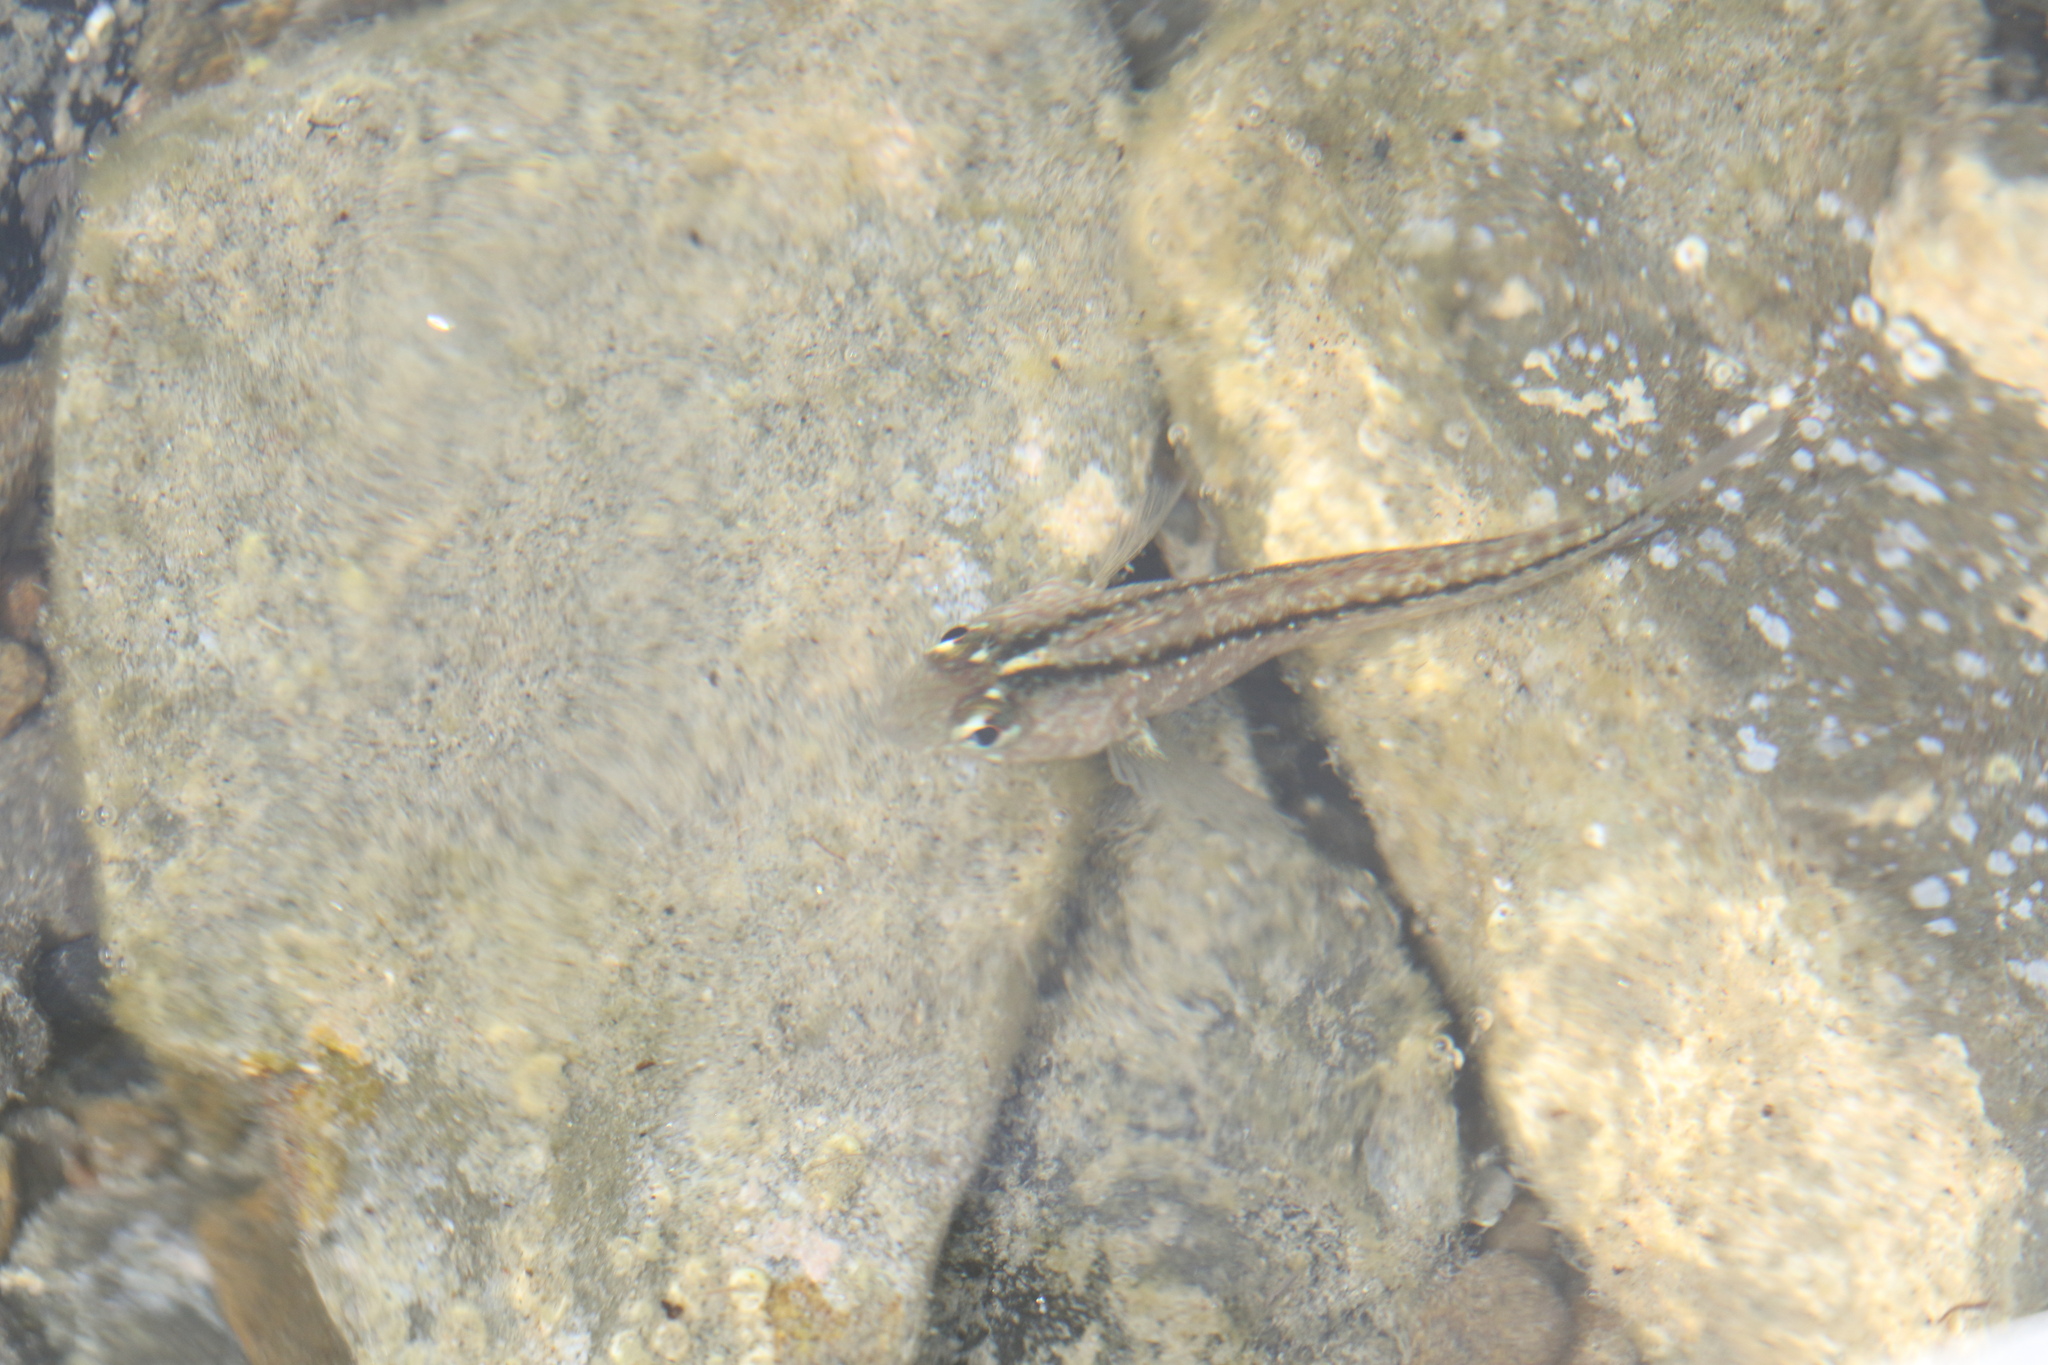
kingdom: Animalia
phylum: Chordata
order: Perciformes
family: Tripterygiidae
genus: Forsterygion
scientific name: Forsterygion lapillum
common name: Common triplefin
